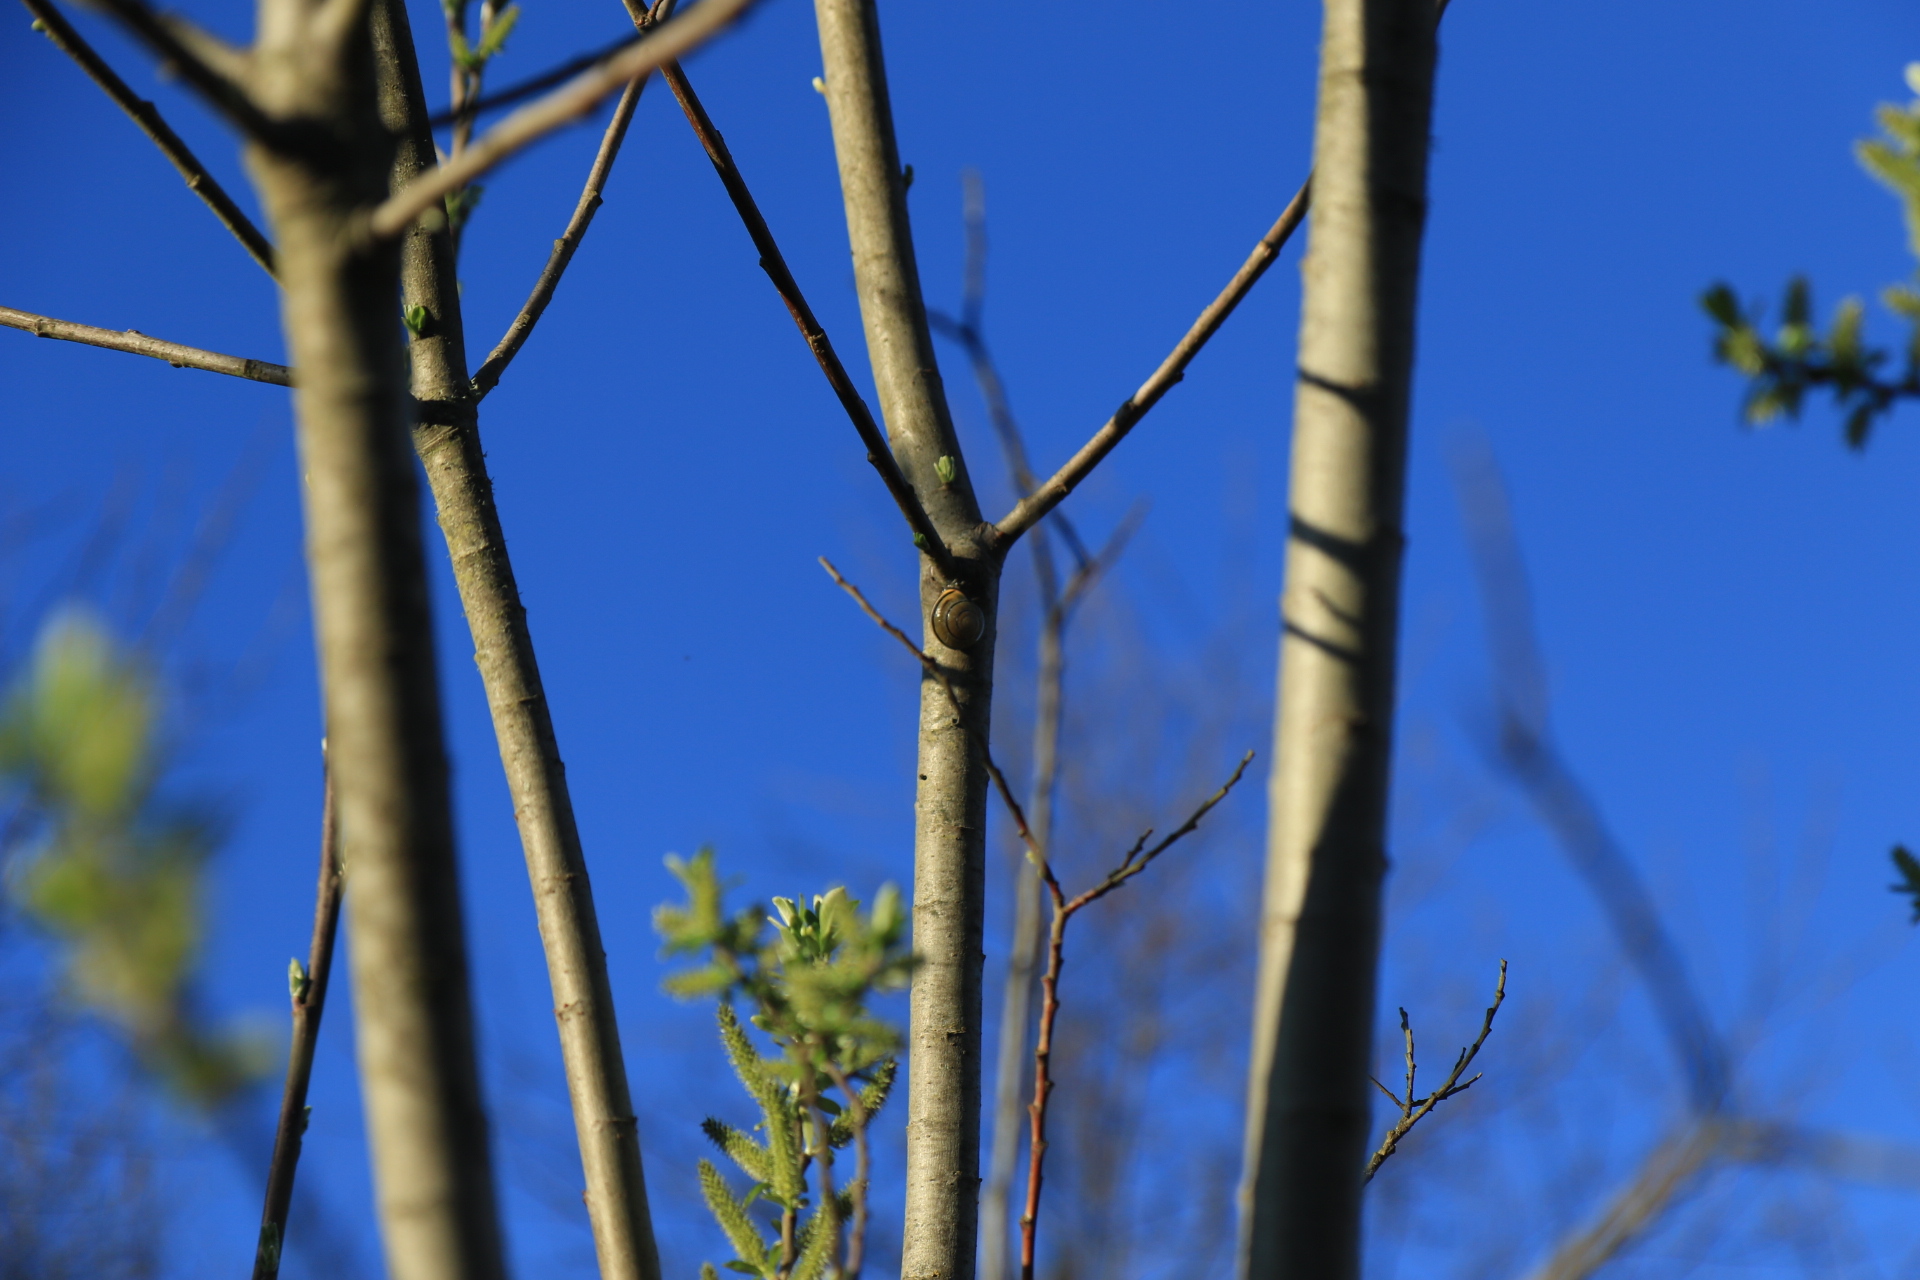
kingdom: Animalia
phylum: Mollusca
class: Gastropoda
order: Stylommatophora
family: Helicidae
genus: Cepaea
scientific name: Cepaea nemoralis
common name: Grovesnail
